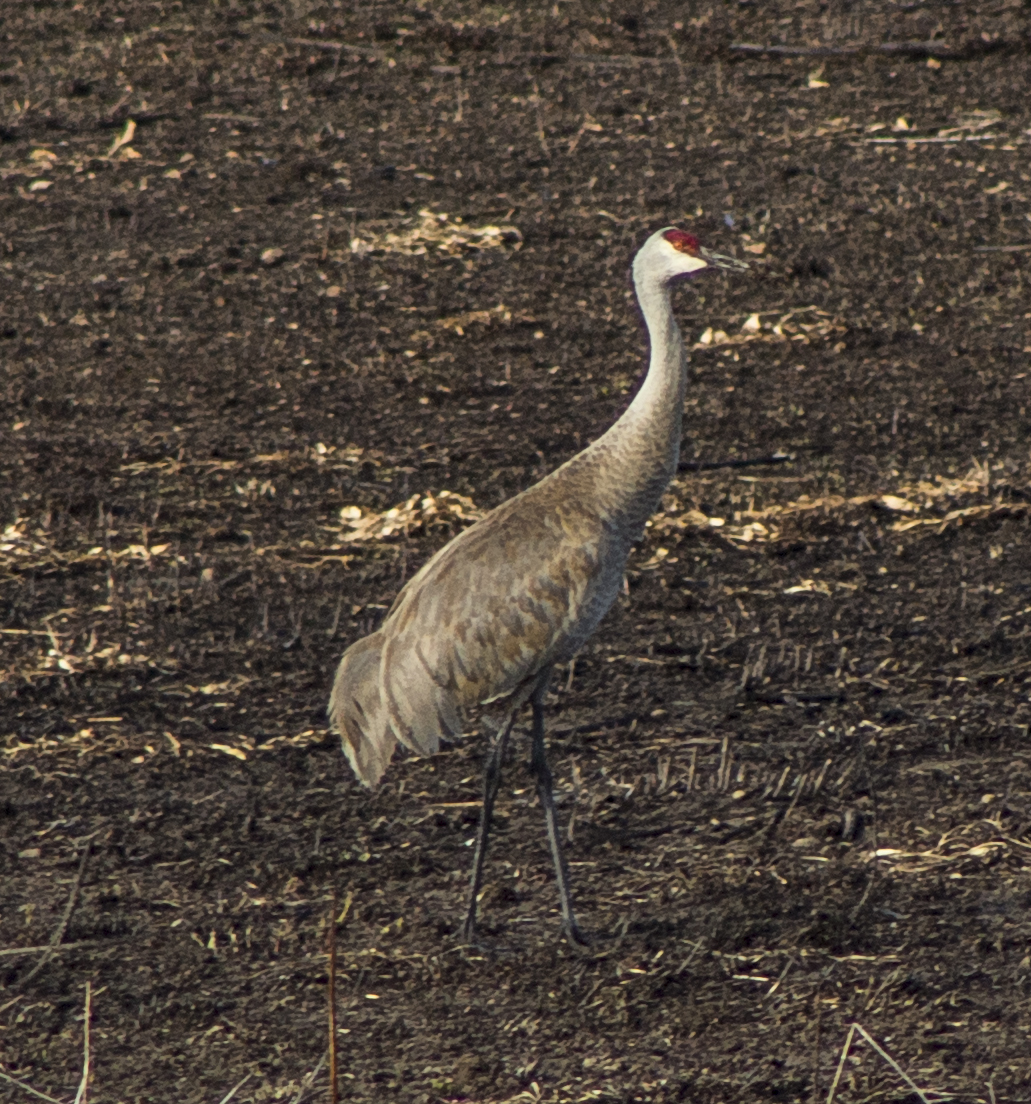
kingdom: Animalia
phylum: Chordata
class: Aves
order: Gruiformes
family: Gruidae
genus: Grus
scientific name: Grus canadensis
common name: Sandhill crane
